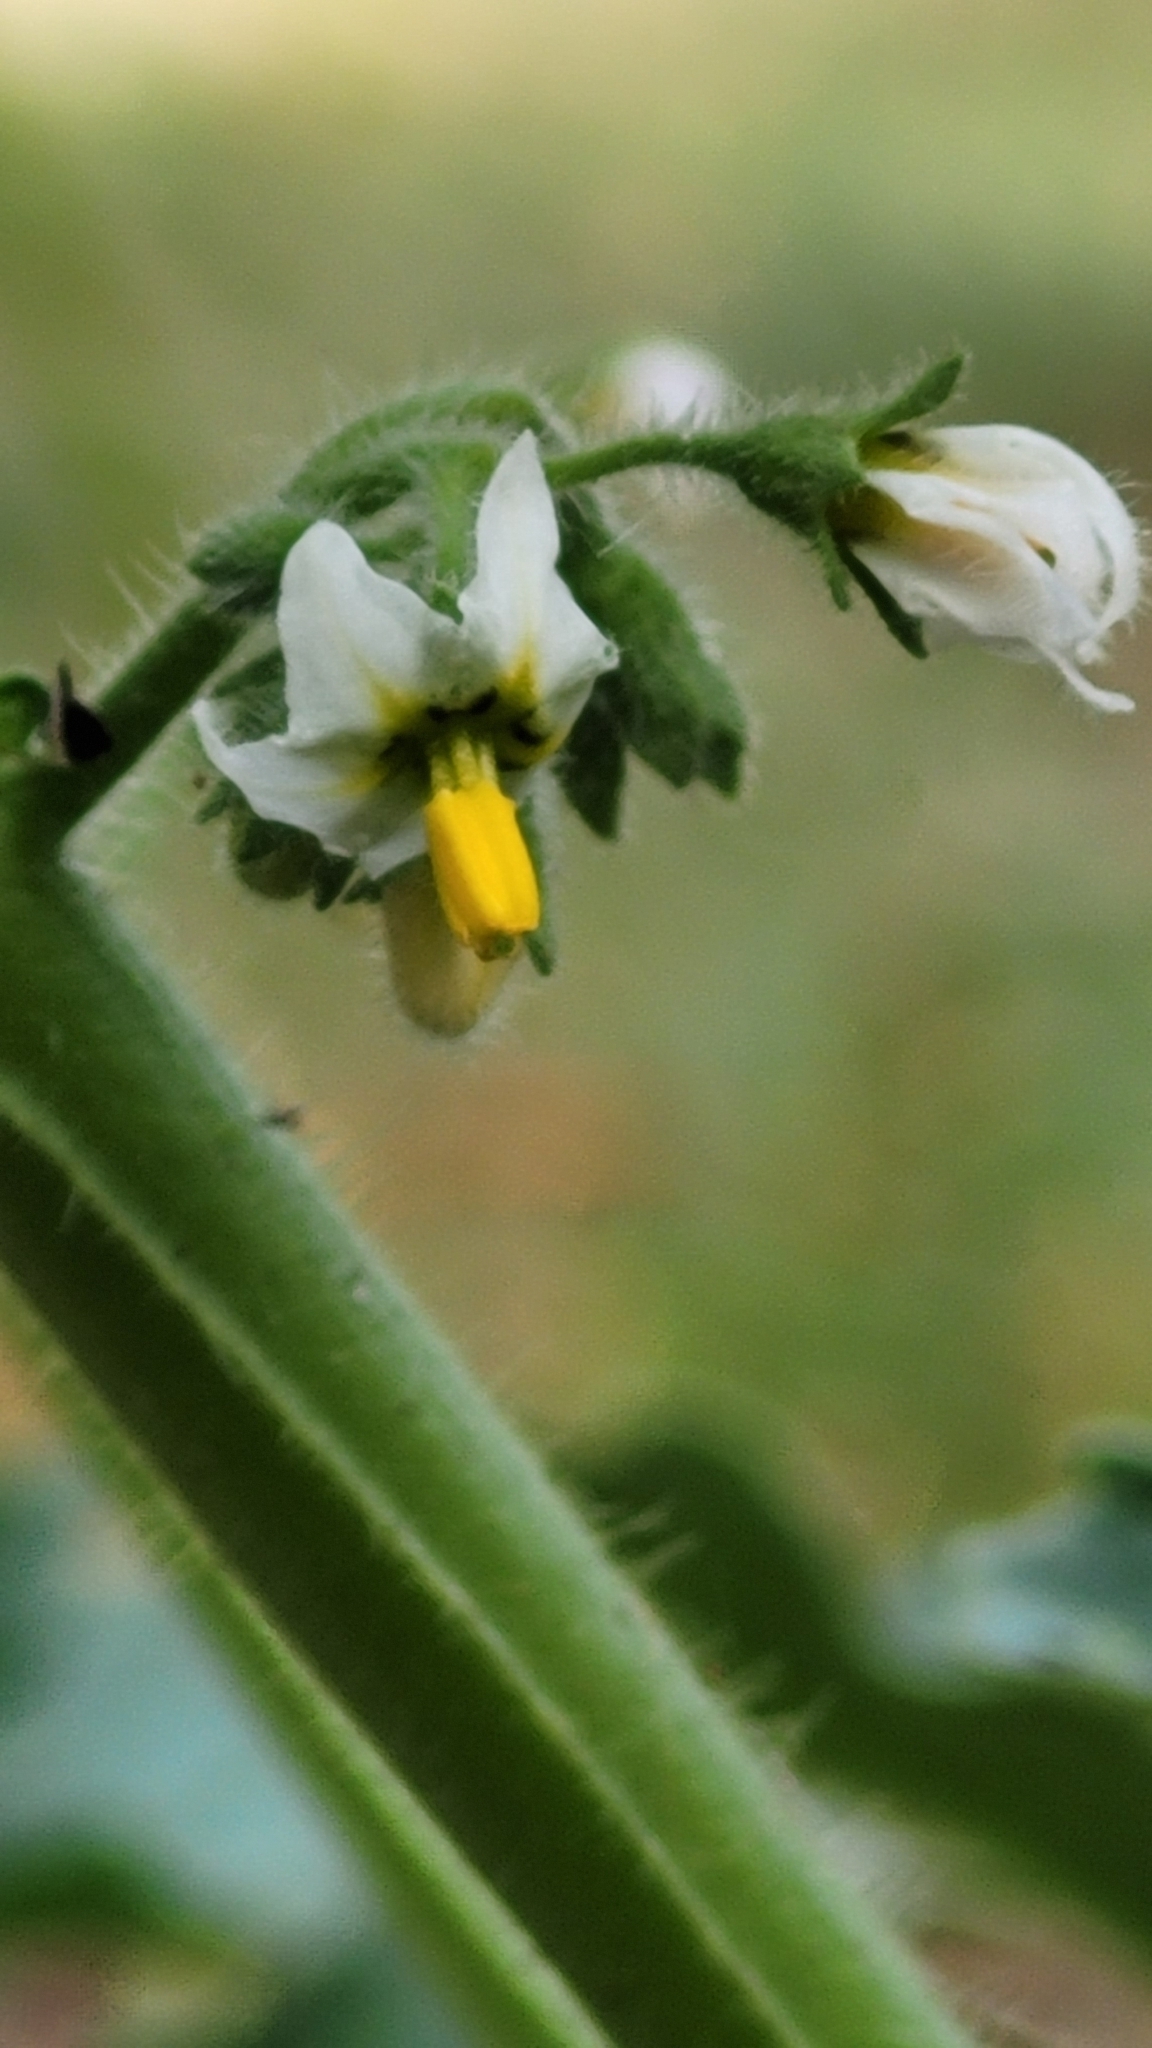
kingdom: Plantae
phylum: Tracheophyta
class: Magnoliopsida
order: Solanales
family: Solanaceae
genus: Solanum
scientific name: Solanum nitidibaccatum
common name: Hairy nightshade
